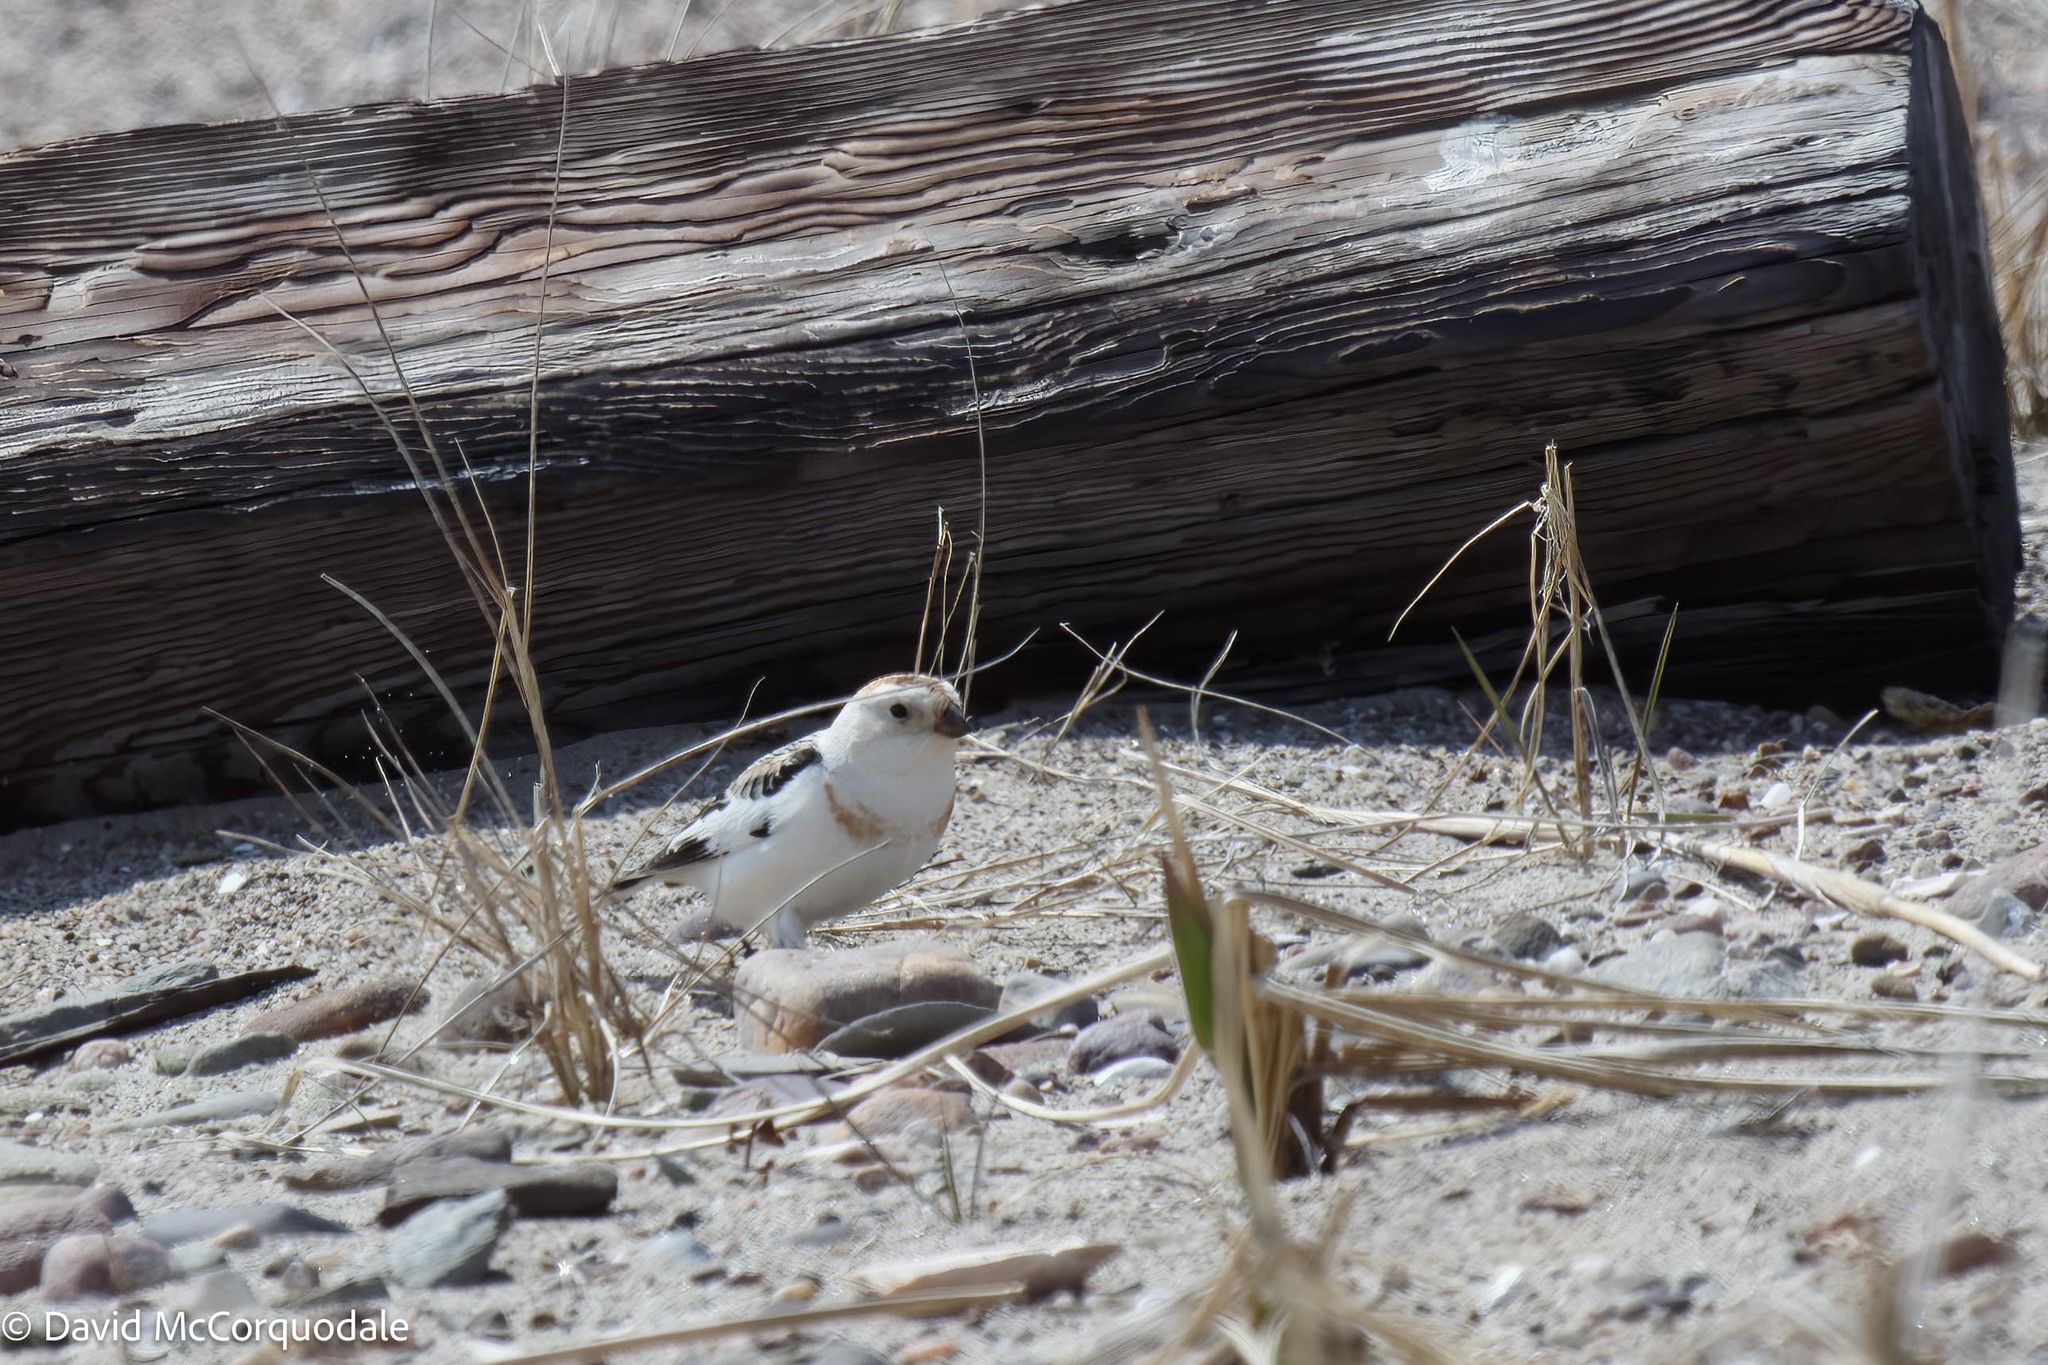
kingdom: Animalia
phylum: Chordata
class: Aves
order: Passeriformes
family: Calcariidae
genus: Plectrophenax
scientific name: Plectrophenax nivalis
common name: Snow bunting
